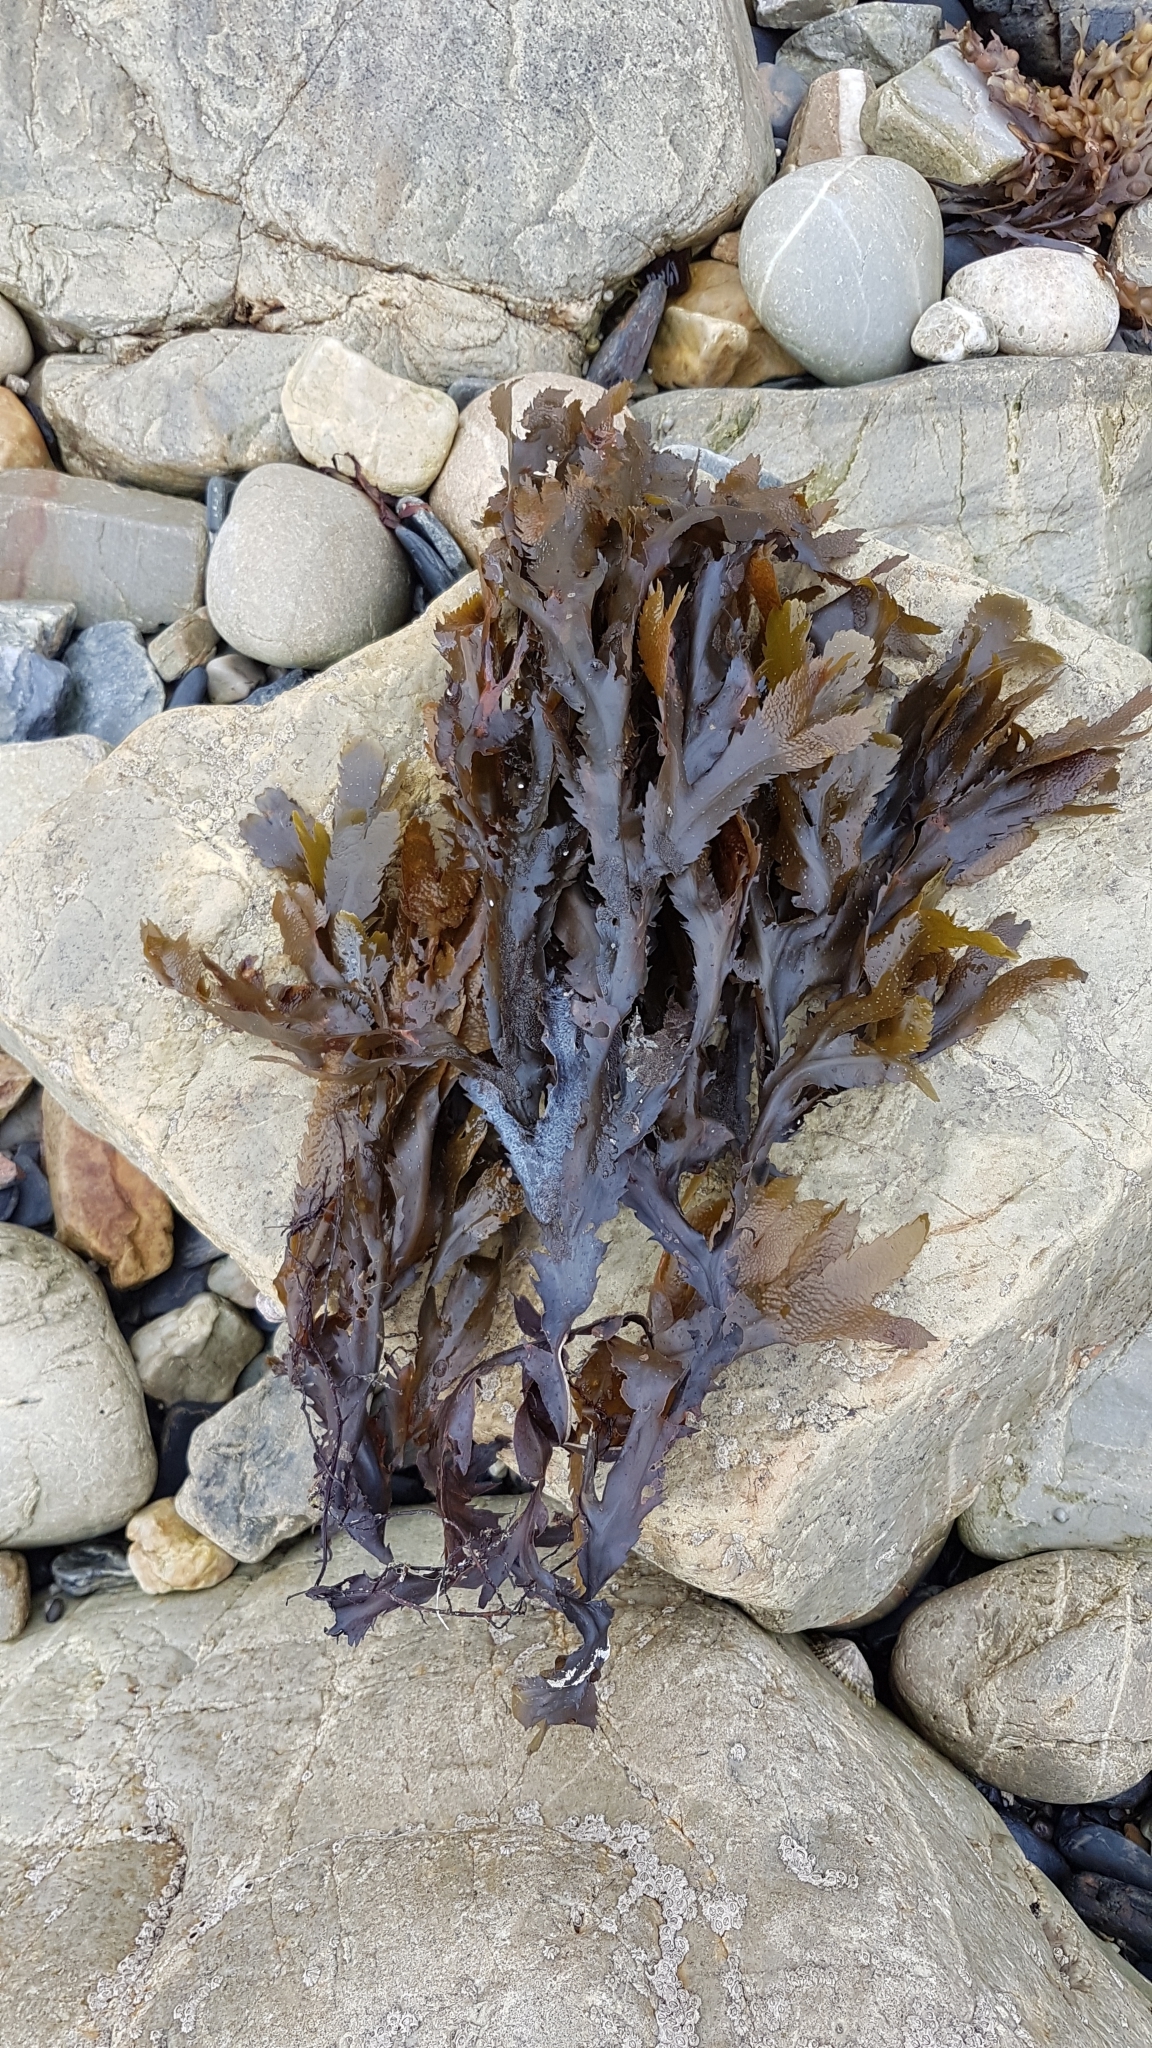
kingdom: Chromista
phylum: Ochrophyta
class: Phaeophyceae
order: Fucales
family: Fucaceae
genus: Fucus
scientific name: Fucus serratus
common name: Toothed wrack
